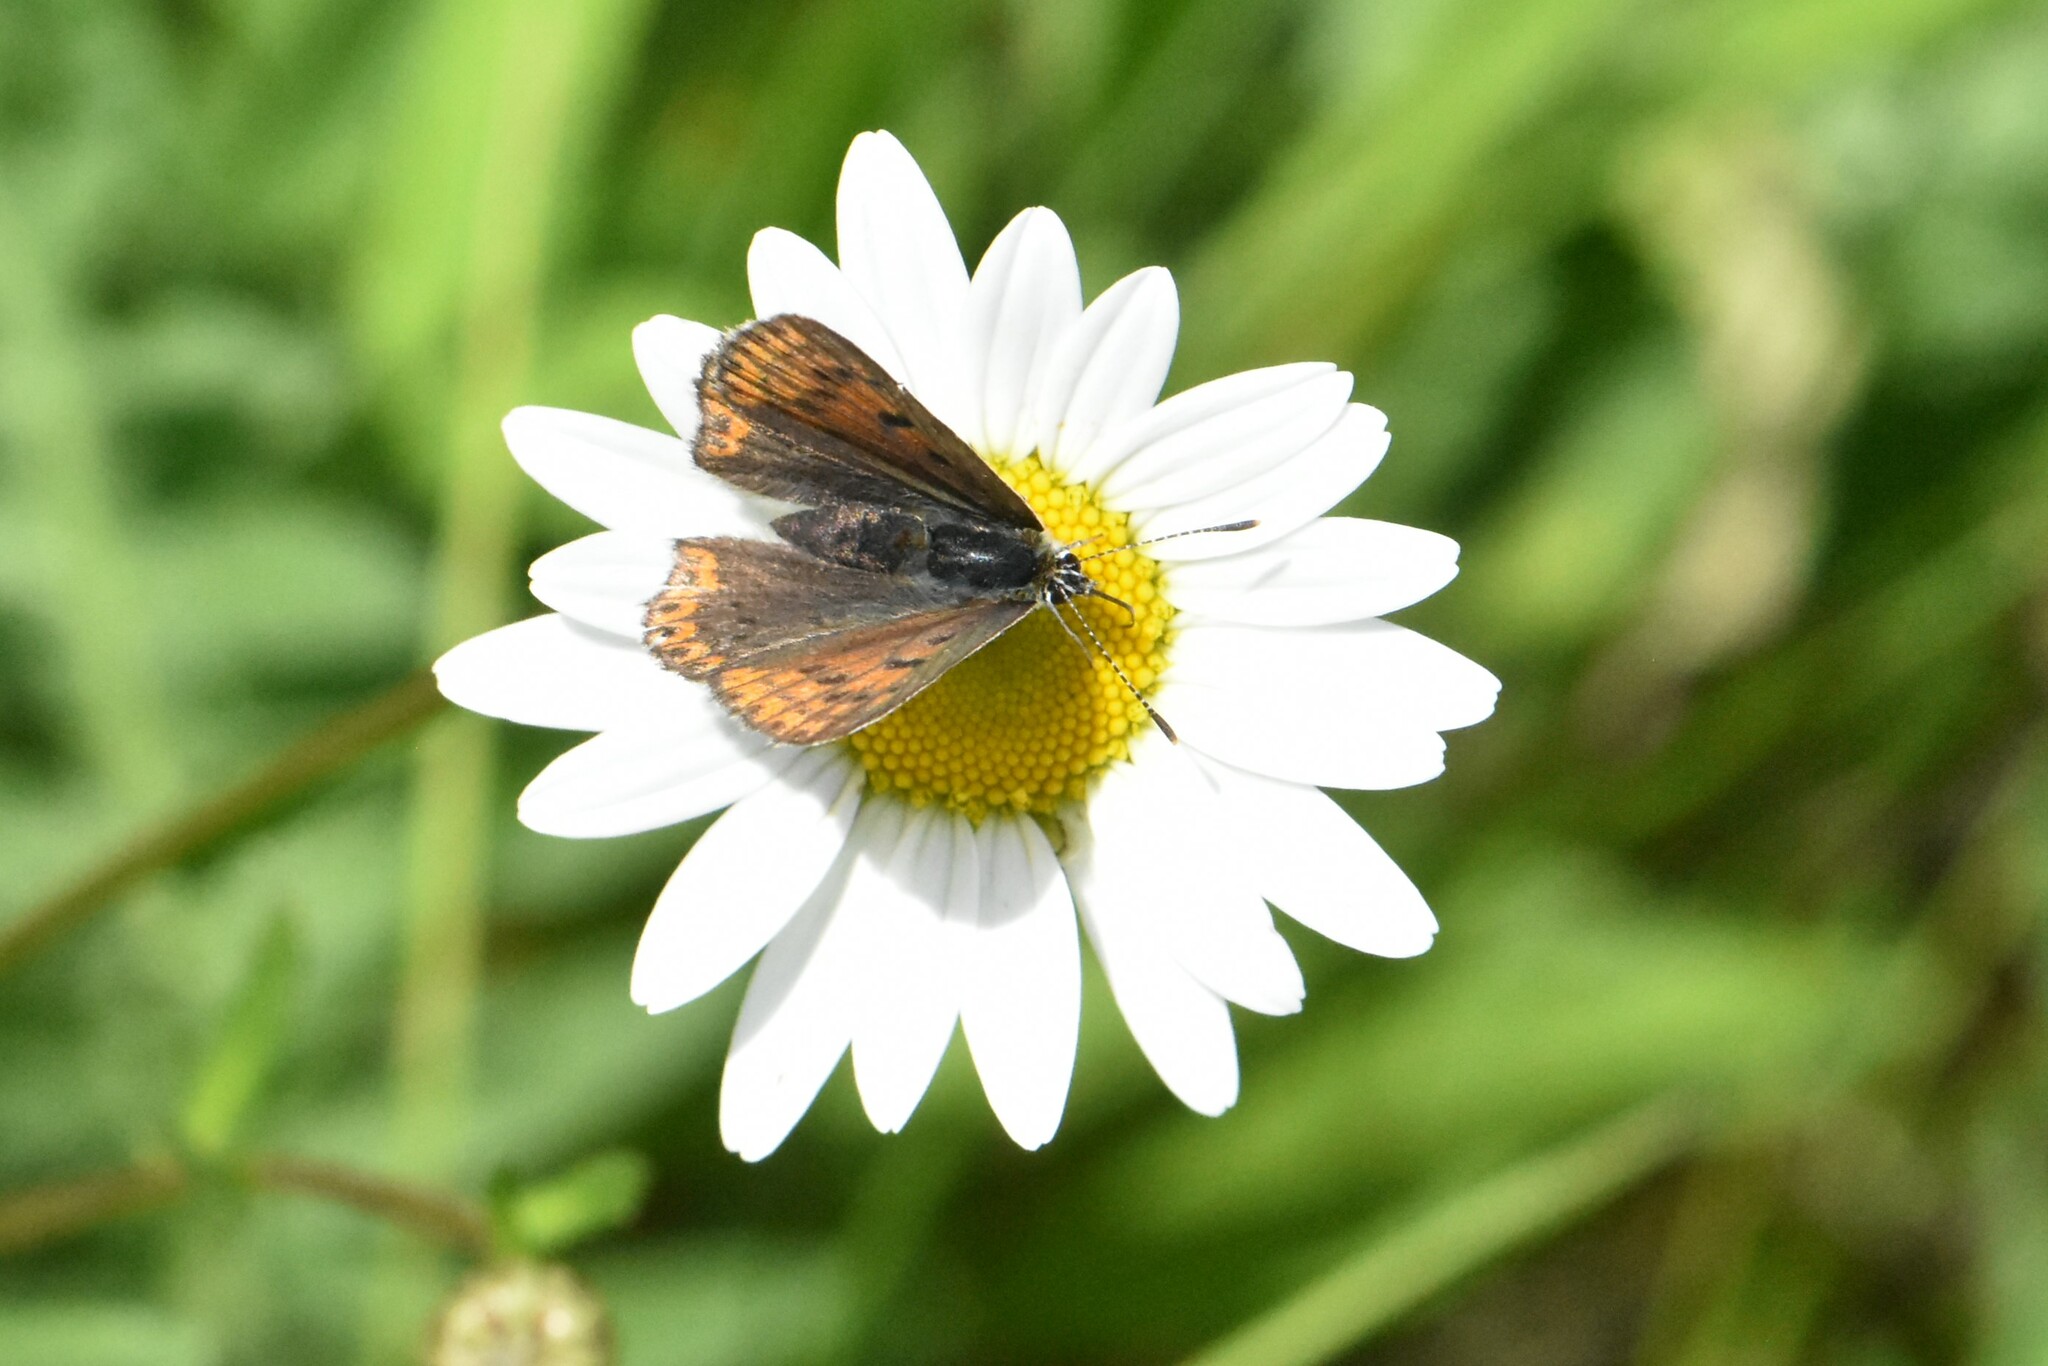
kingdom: Animalia
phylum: Arthropoda
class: Insecta
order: Lepidoptera
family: Lycaenidae
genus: Loweia
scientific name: Loweia tityrus
